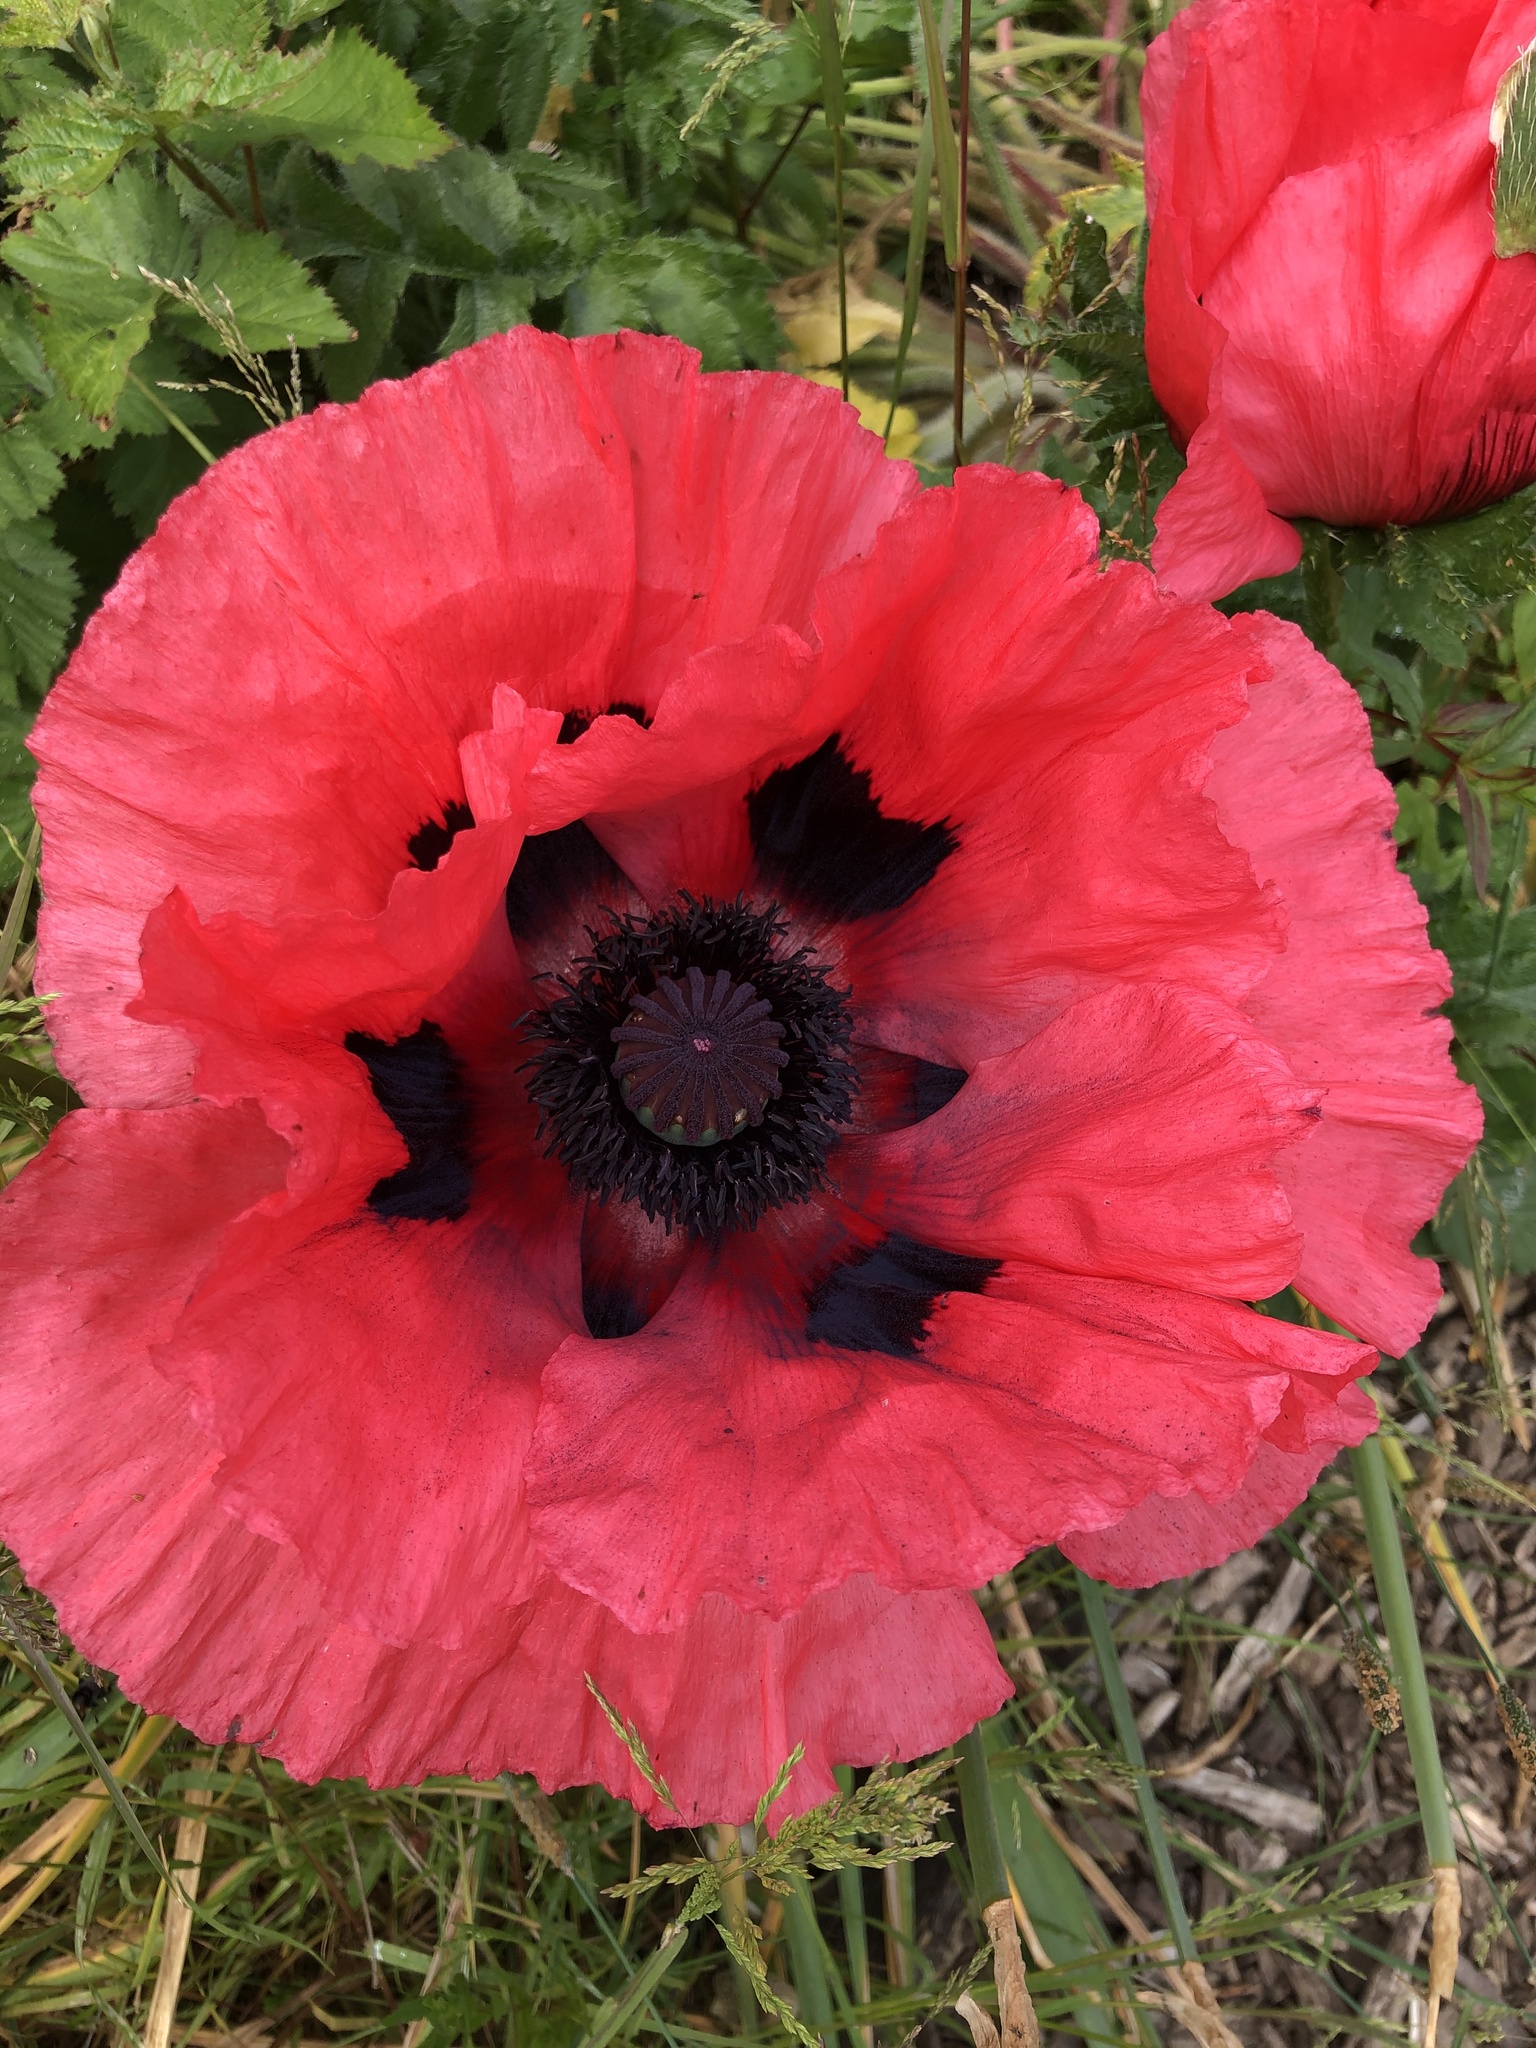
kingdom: Plantae
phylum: Tracheophyta
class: Magnoliopsida
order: Ranunculales
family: Papaveraceae
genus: Papaver
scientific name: Papaver orientale
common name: Oriental poppy
